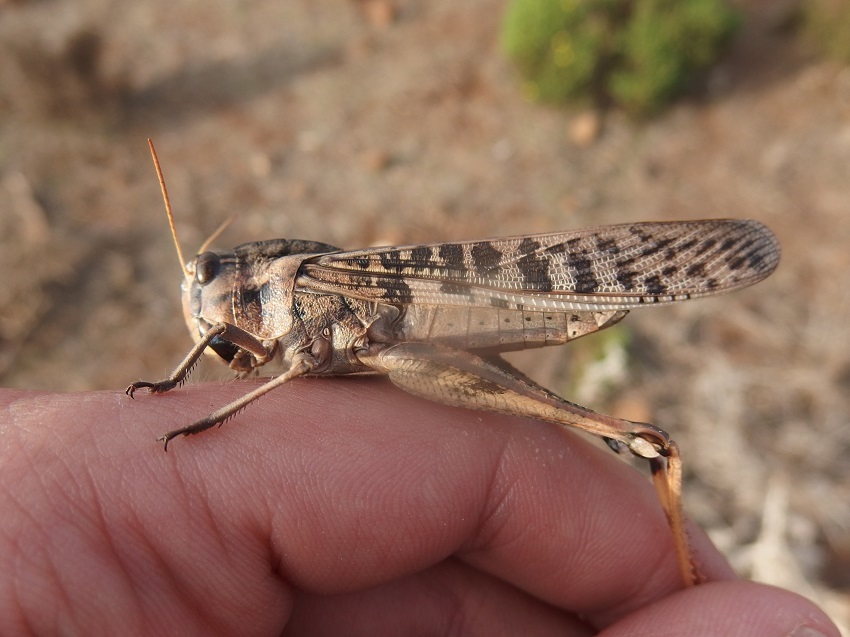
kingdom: Animalia
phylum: Arthropoda
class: Insecta
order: Orthoptera
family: Acrididae
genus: Locusta
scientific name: Locusta migratoria
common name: Migratory locust
